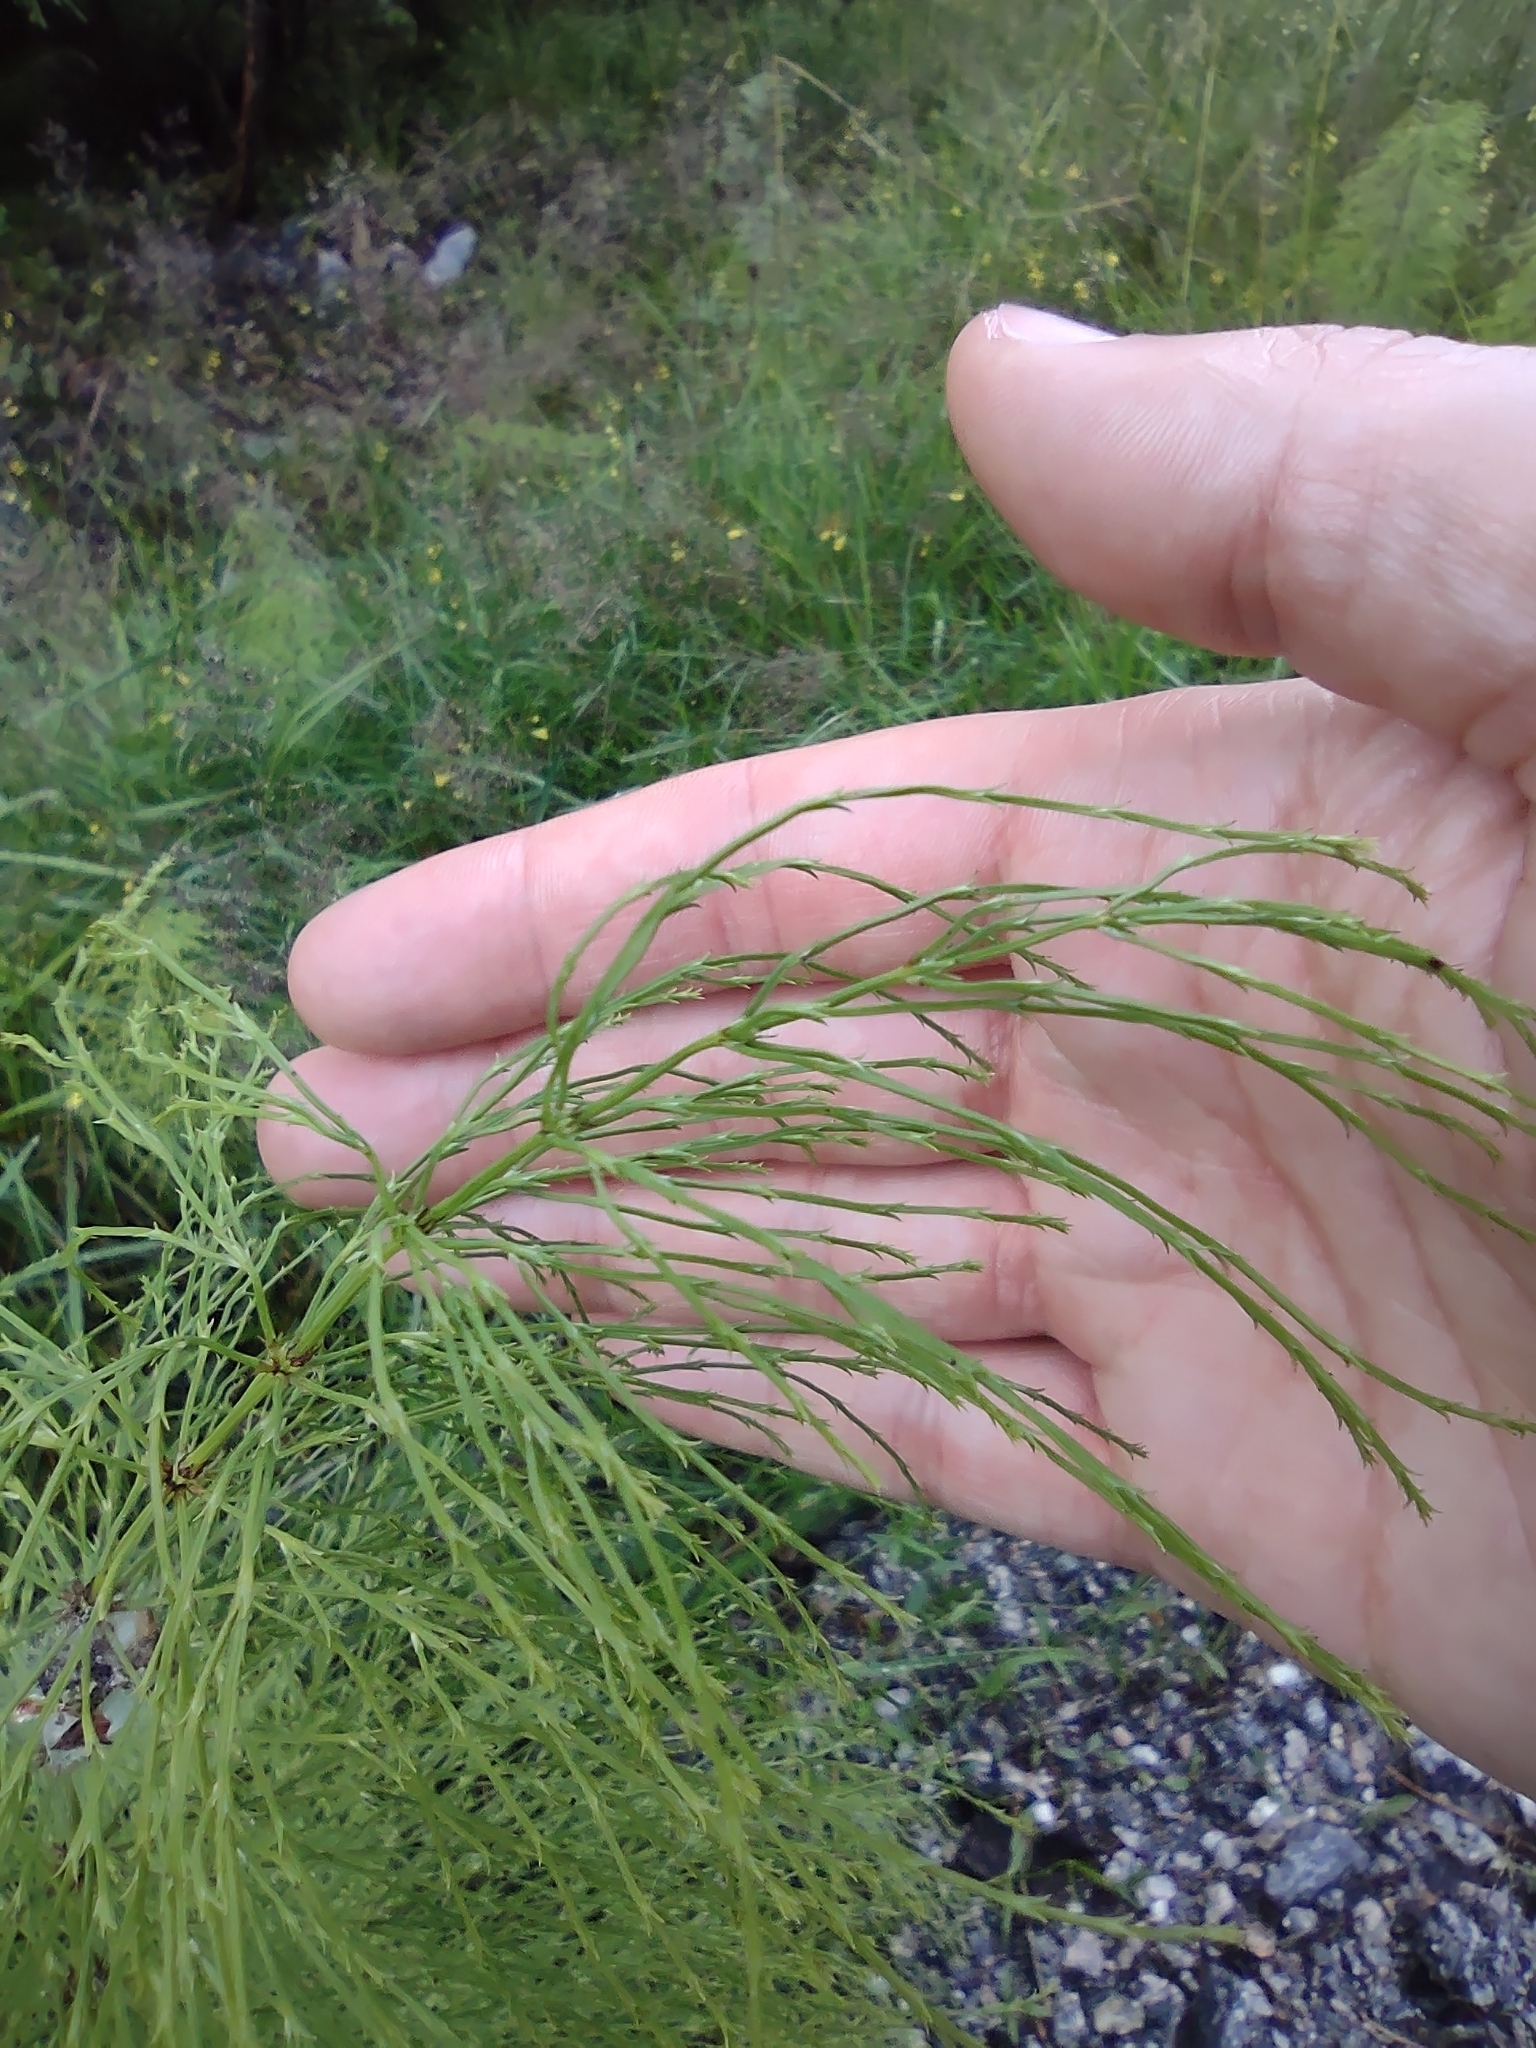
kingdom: Plantae
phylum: Tracheophyta
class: Polypodiopsida
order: Equisetales
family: Equisetaceae
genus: Equisetum
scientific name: Equisetum sylvaticum
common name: Wood horsetail
